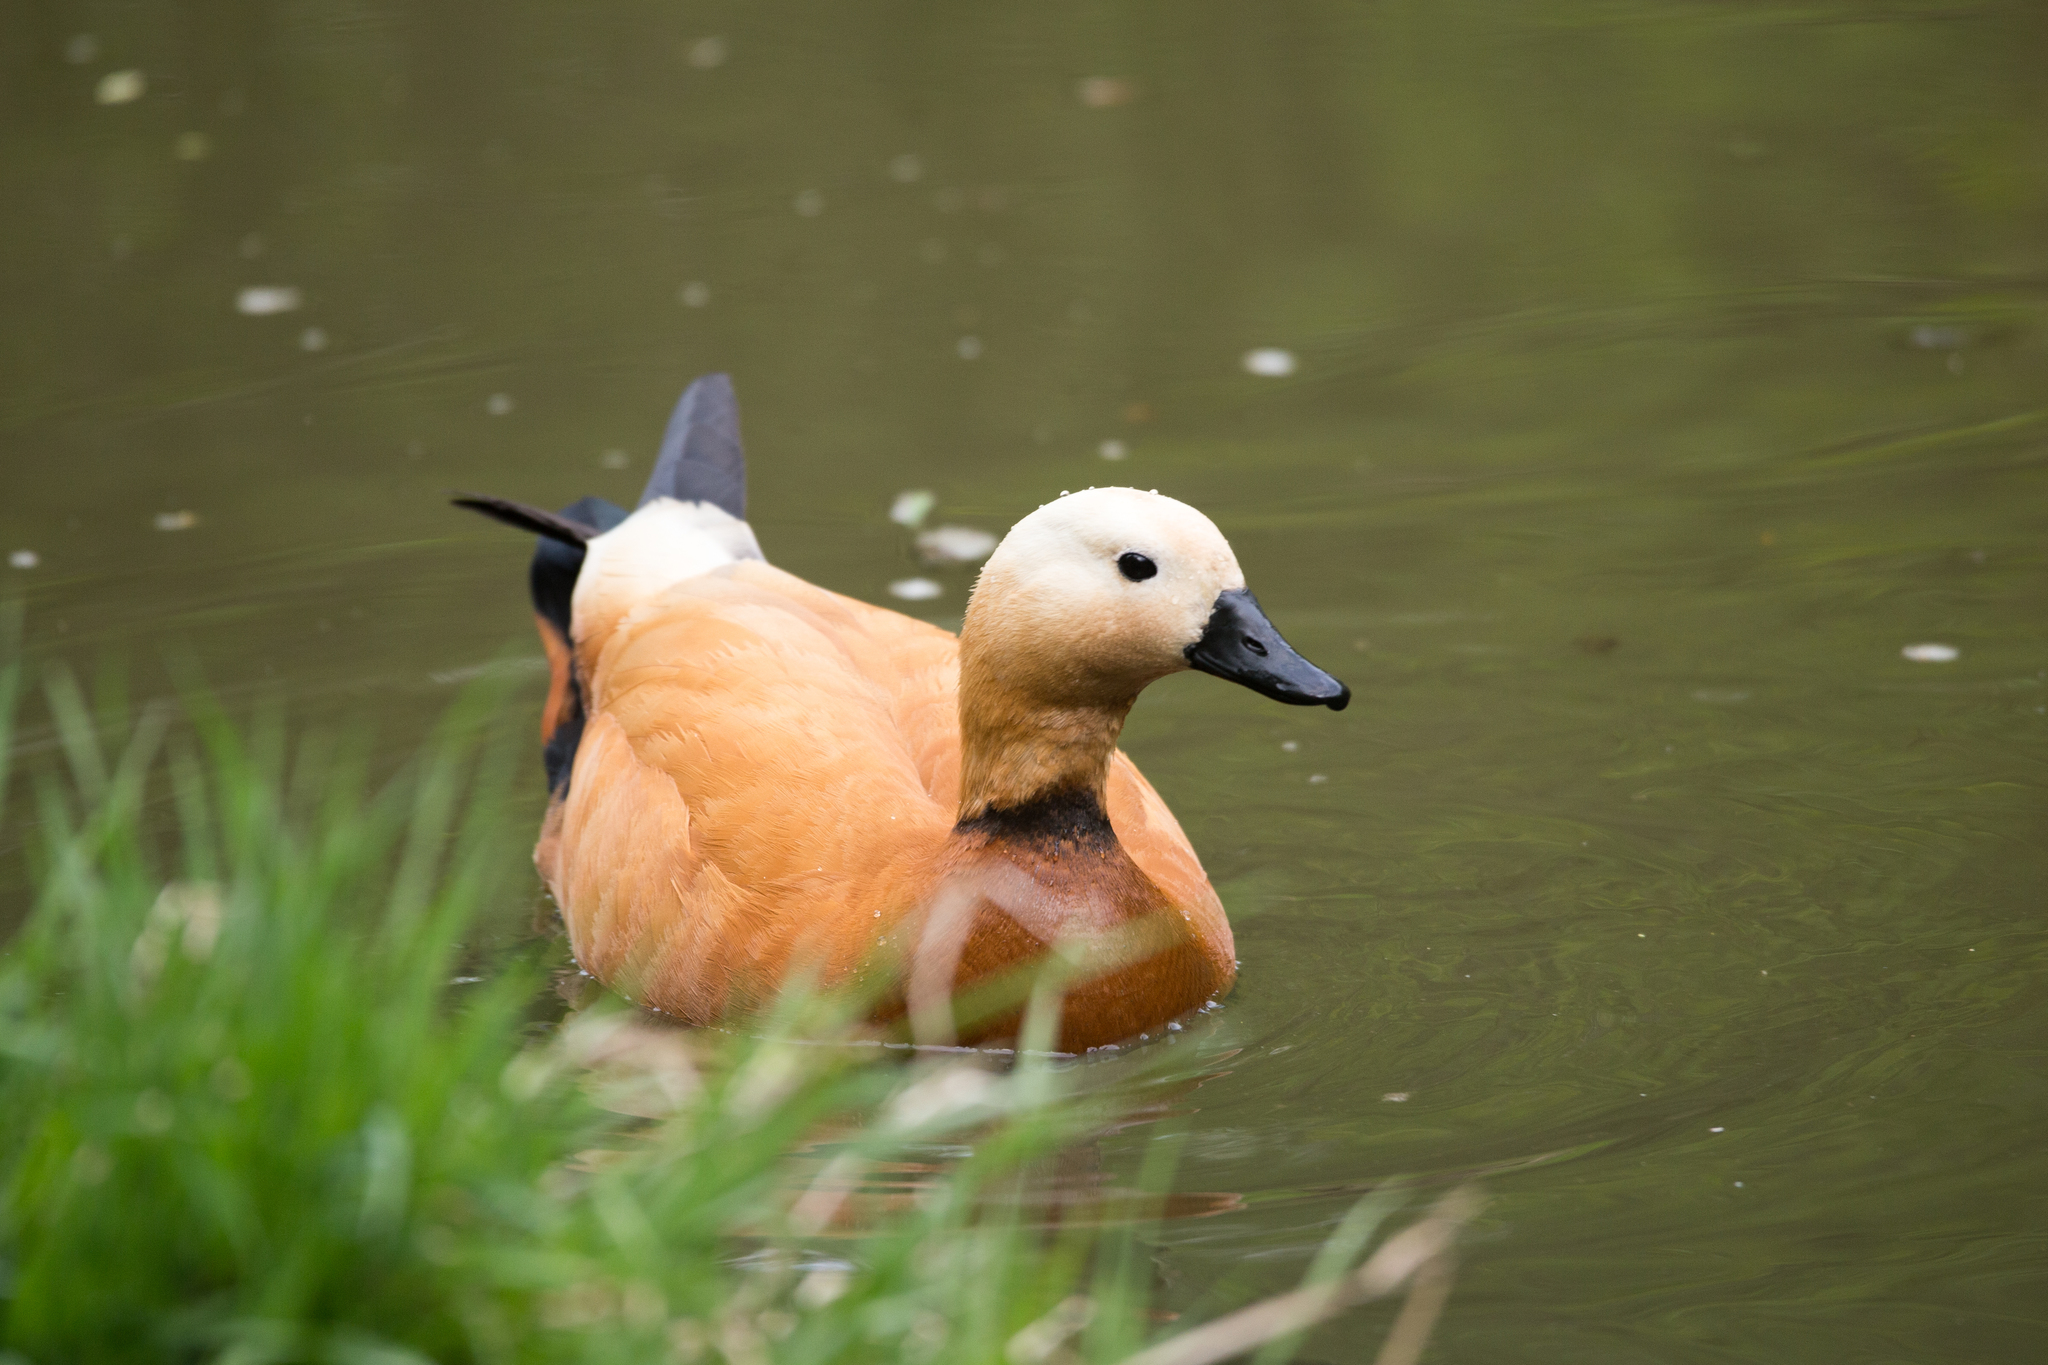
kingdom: Animalia
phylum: Chordata
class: Aves
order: Anseriformes
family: Anatidae
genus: Tadorna
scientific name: Tadorna ferruginea
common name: Ruddy shelduck
